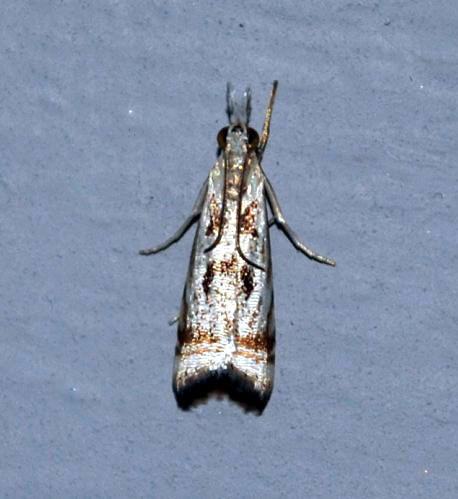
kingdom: Animalia
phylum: Arthropoda
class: Insecta
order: Lepidoptera
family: Crambidae
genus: Microcrambus
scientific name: Microcrambus elegans
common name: Elegant grass-veneer
